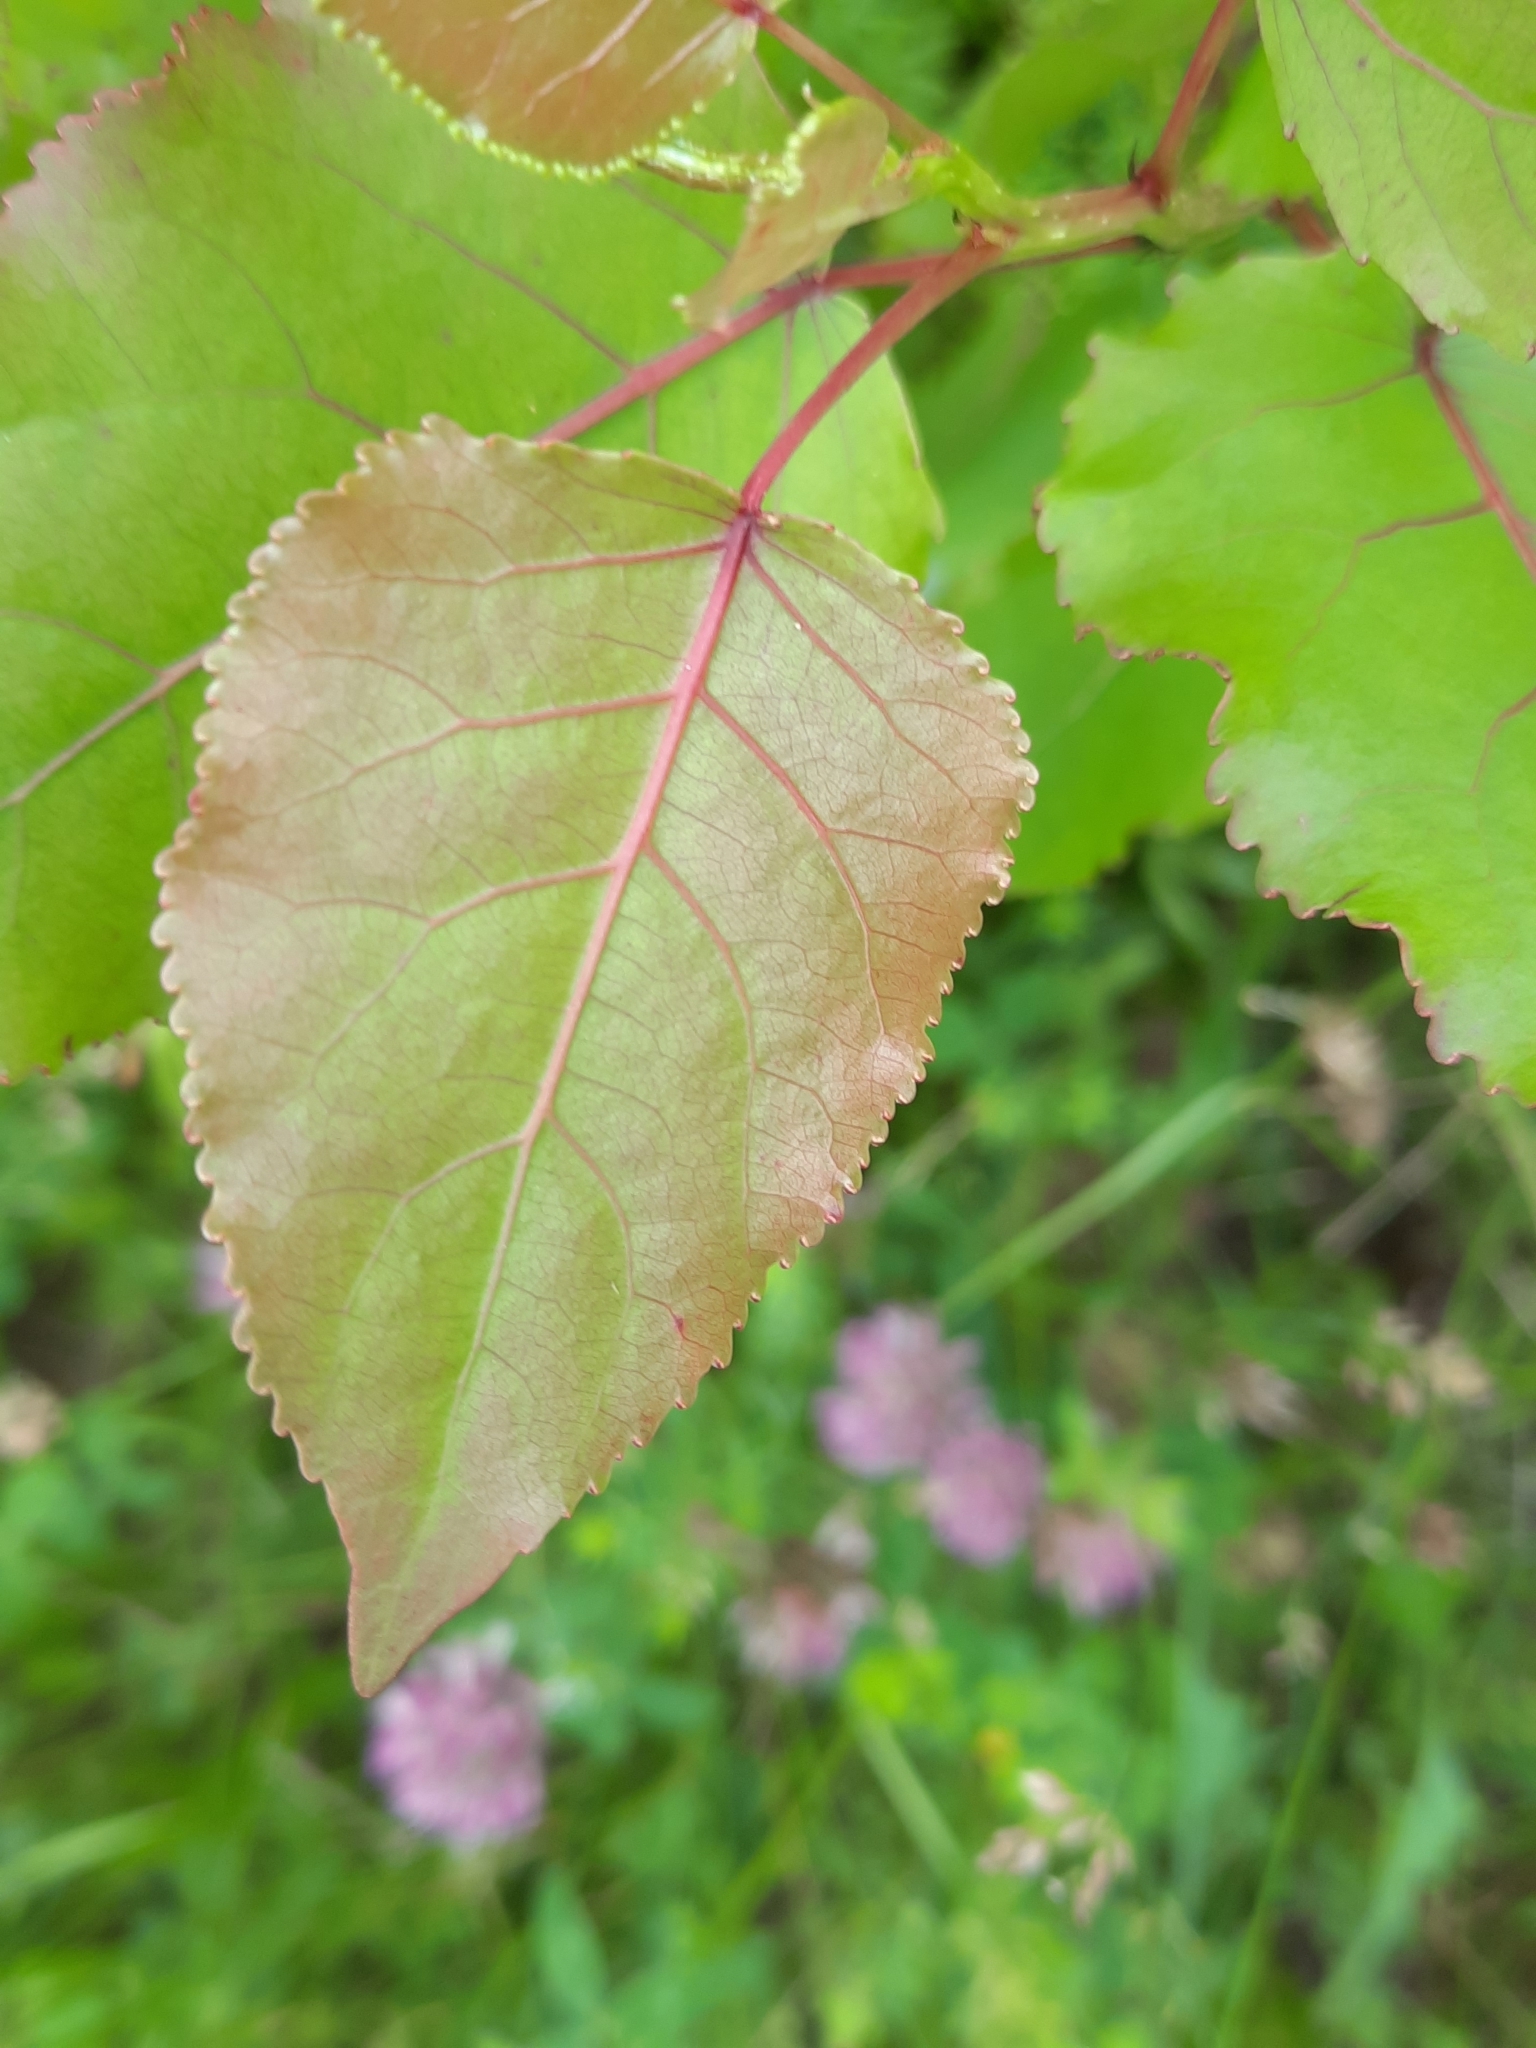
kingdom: Plantae
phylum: Tracheophyta
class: Magnoliopsida
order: Malpighiales
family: Salicaceae
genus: Populus
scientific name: Populus deltoides
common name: Eastern cottonwood
